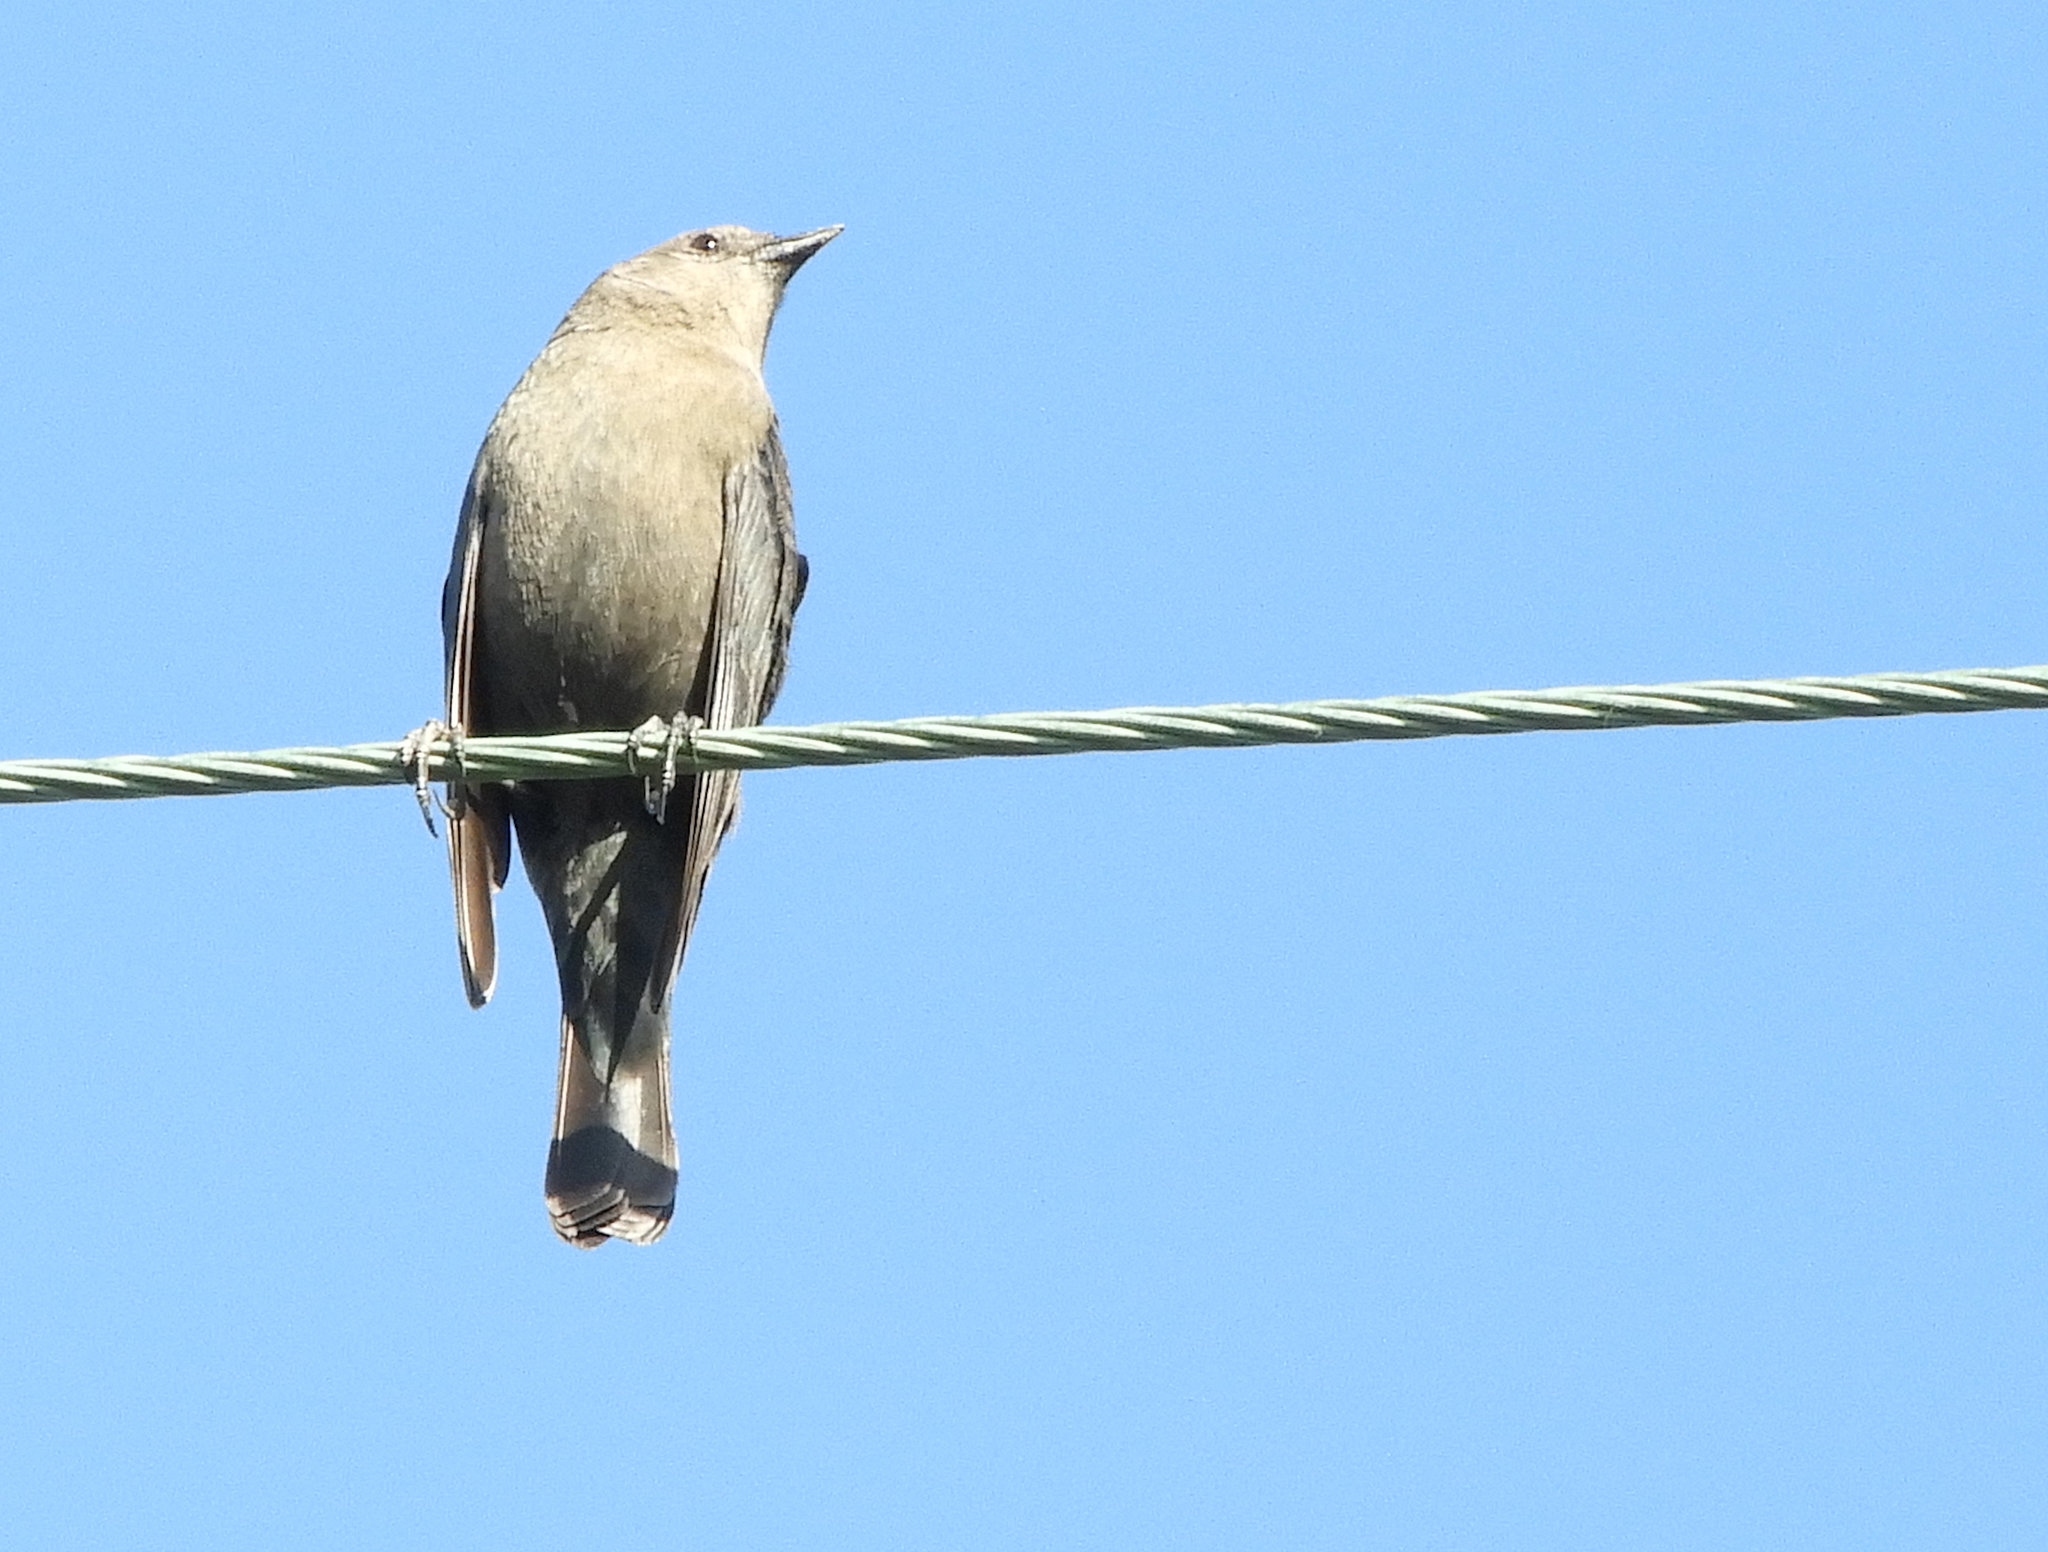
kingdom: Animalia
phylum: Chordata
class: Aves
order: Passeriformes
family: Icteridae
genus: Euphagus
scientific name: Euphagus cyanocephalus
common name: Brewer's blackbird
